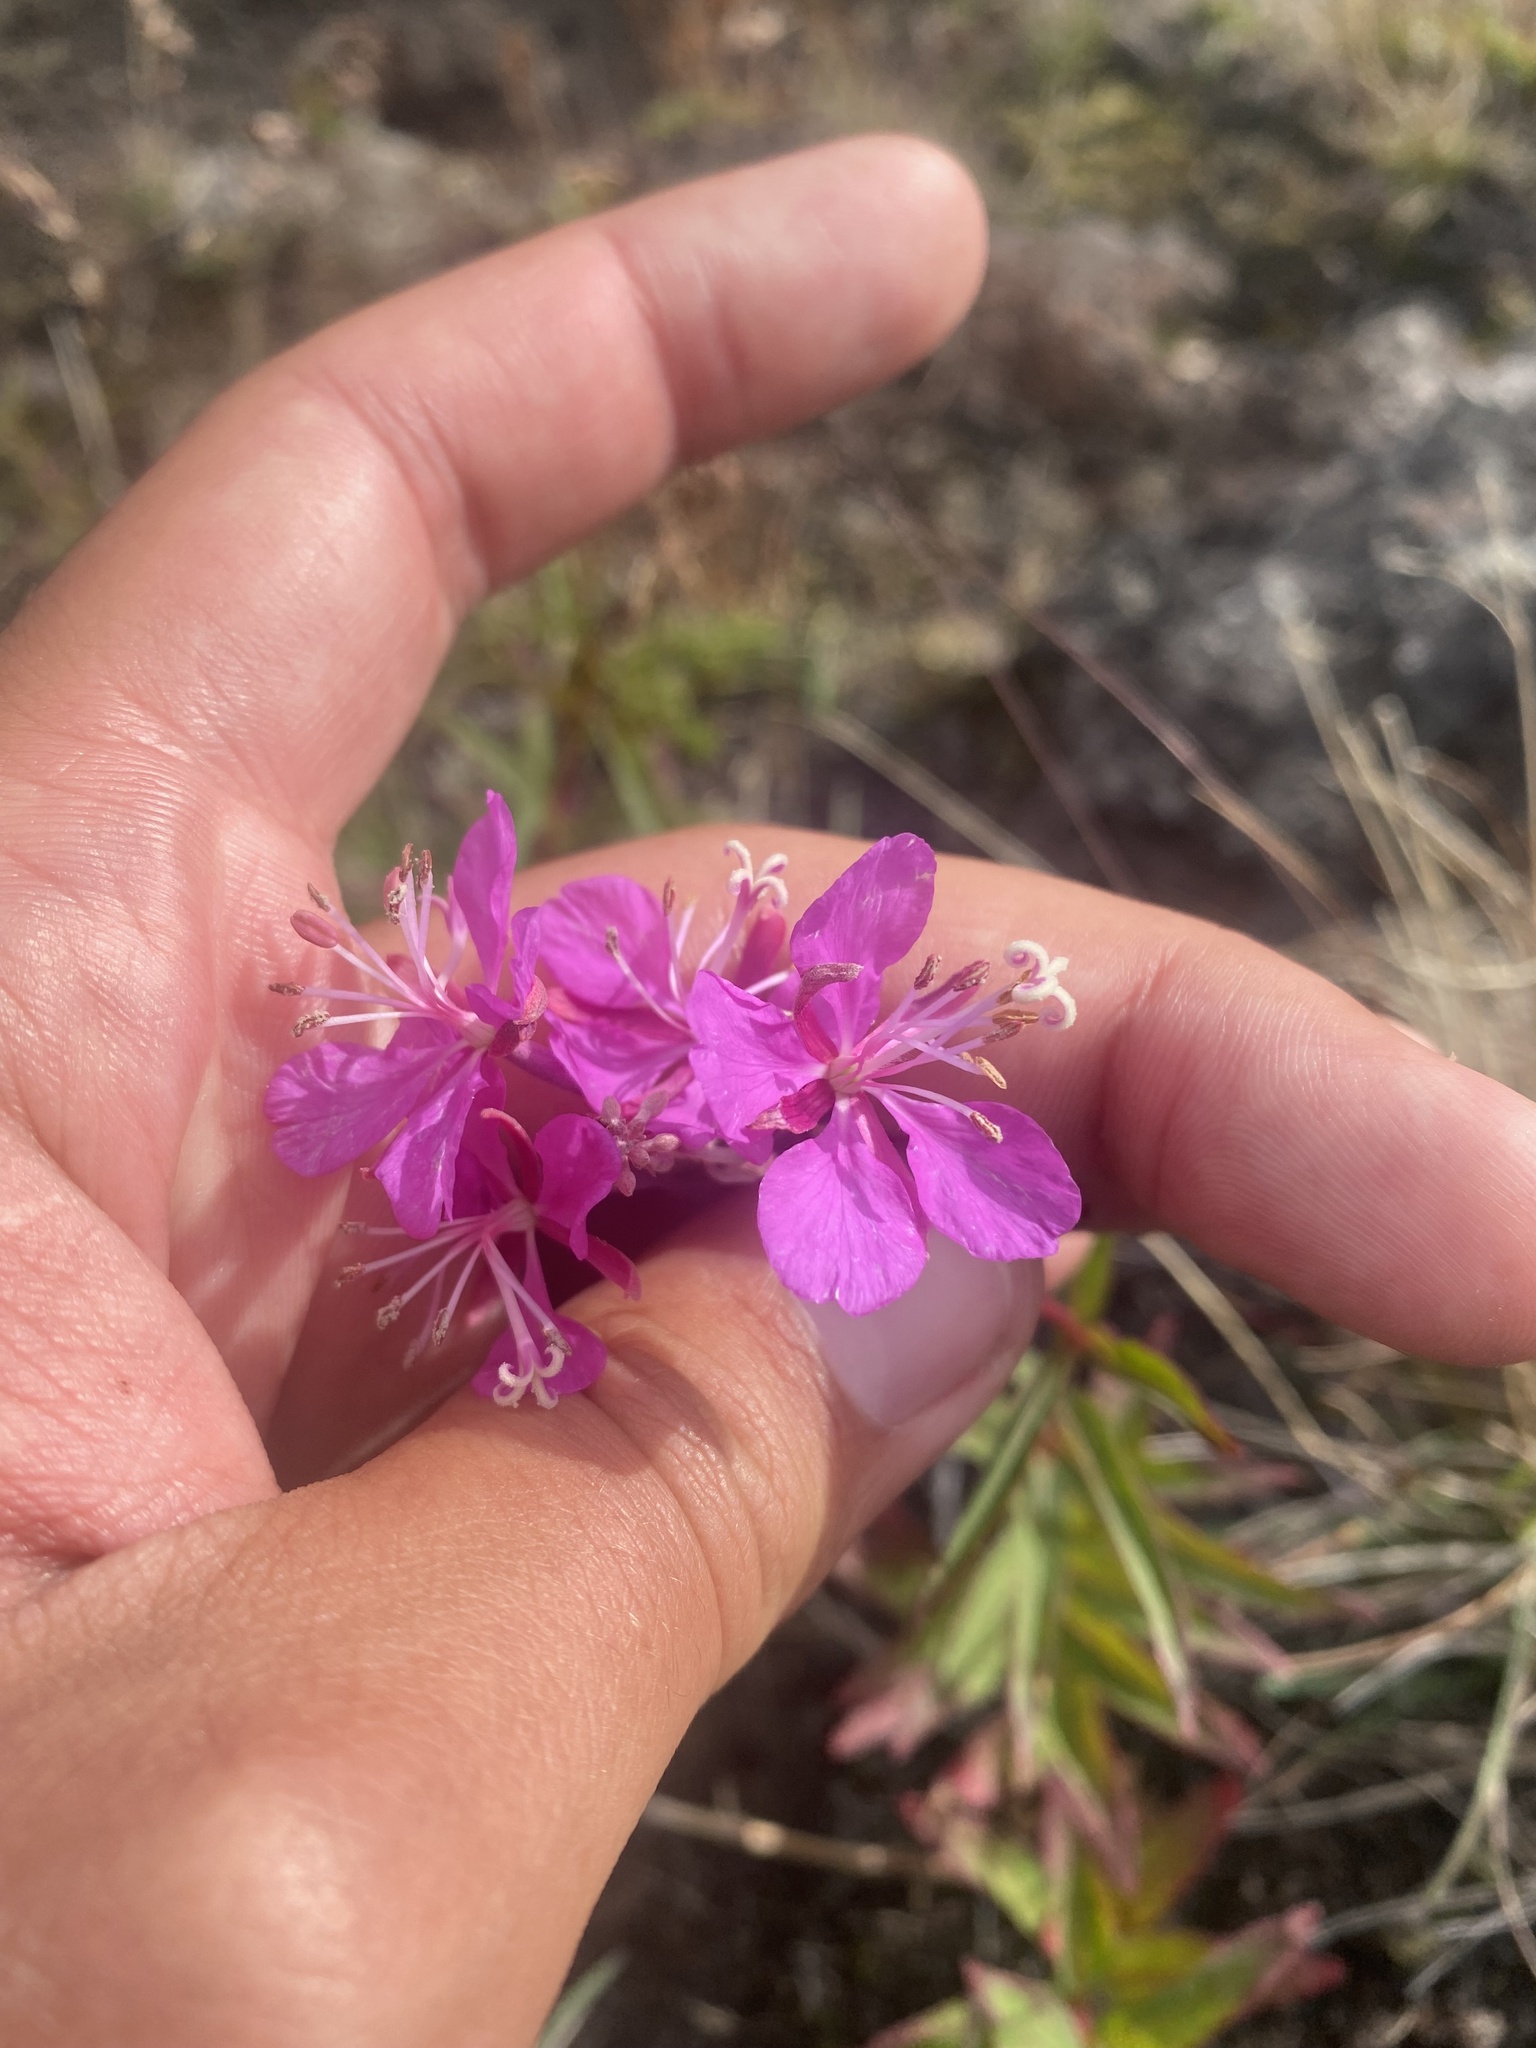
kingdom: Plantae
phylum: Tracheophyta
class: Magnoliopsida
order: Myrtales
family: Onagraceae
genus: Chamaenerion
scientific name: Chamaenerion angustifolium
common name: Fireweed
